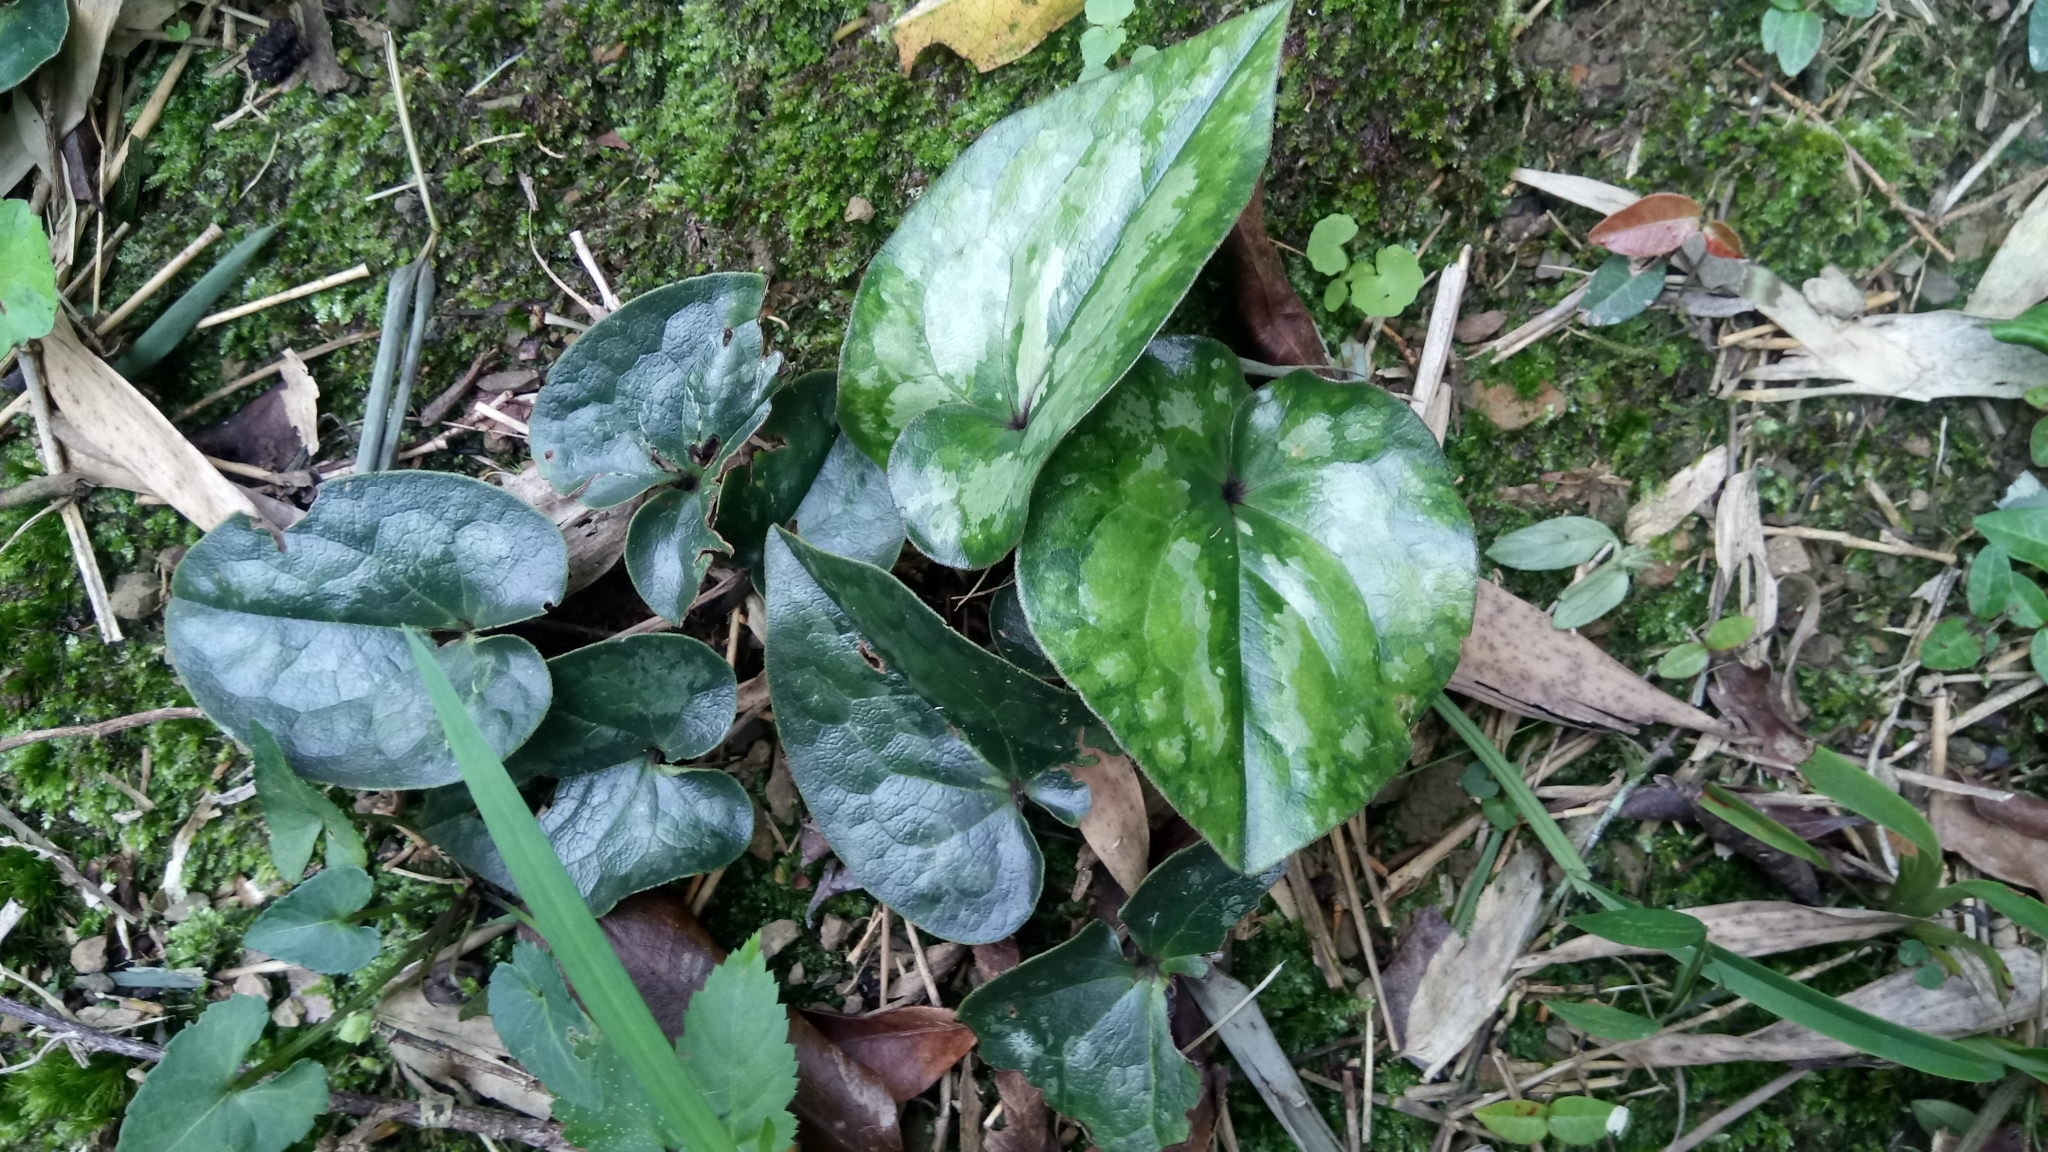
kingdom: Plantae
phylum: Tracheophyta
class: Magnoliopsida
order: Piperales
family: Aristolochiaceae
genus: Asarum
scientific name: Asarum macranthum
